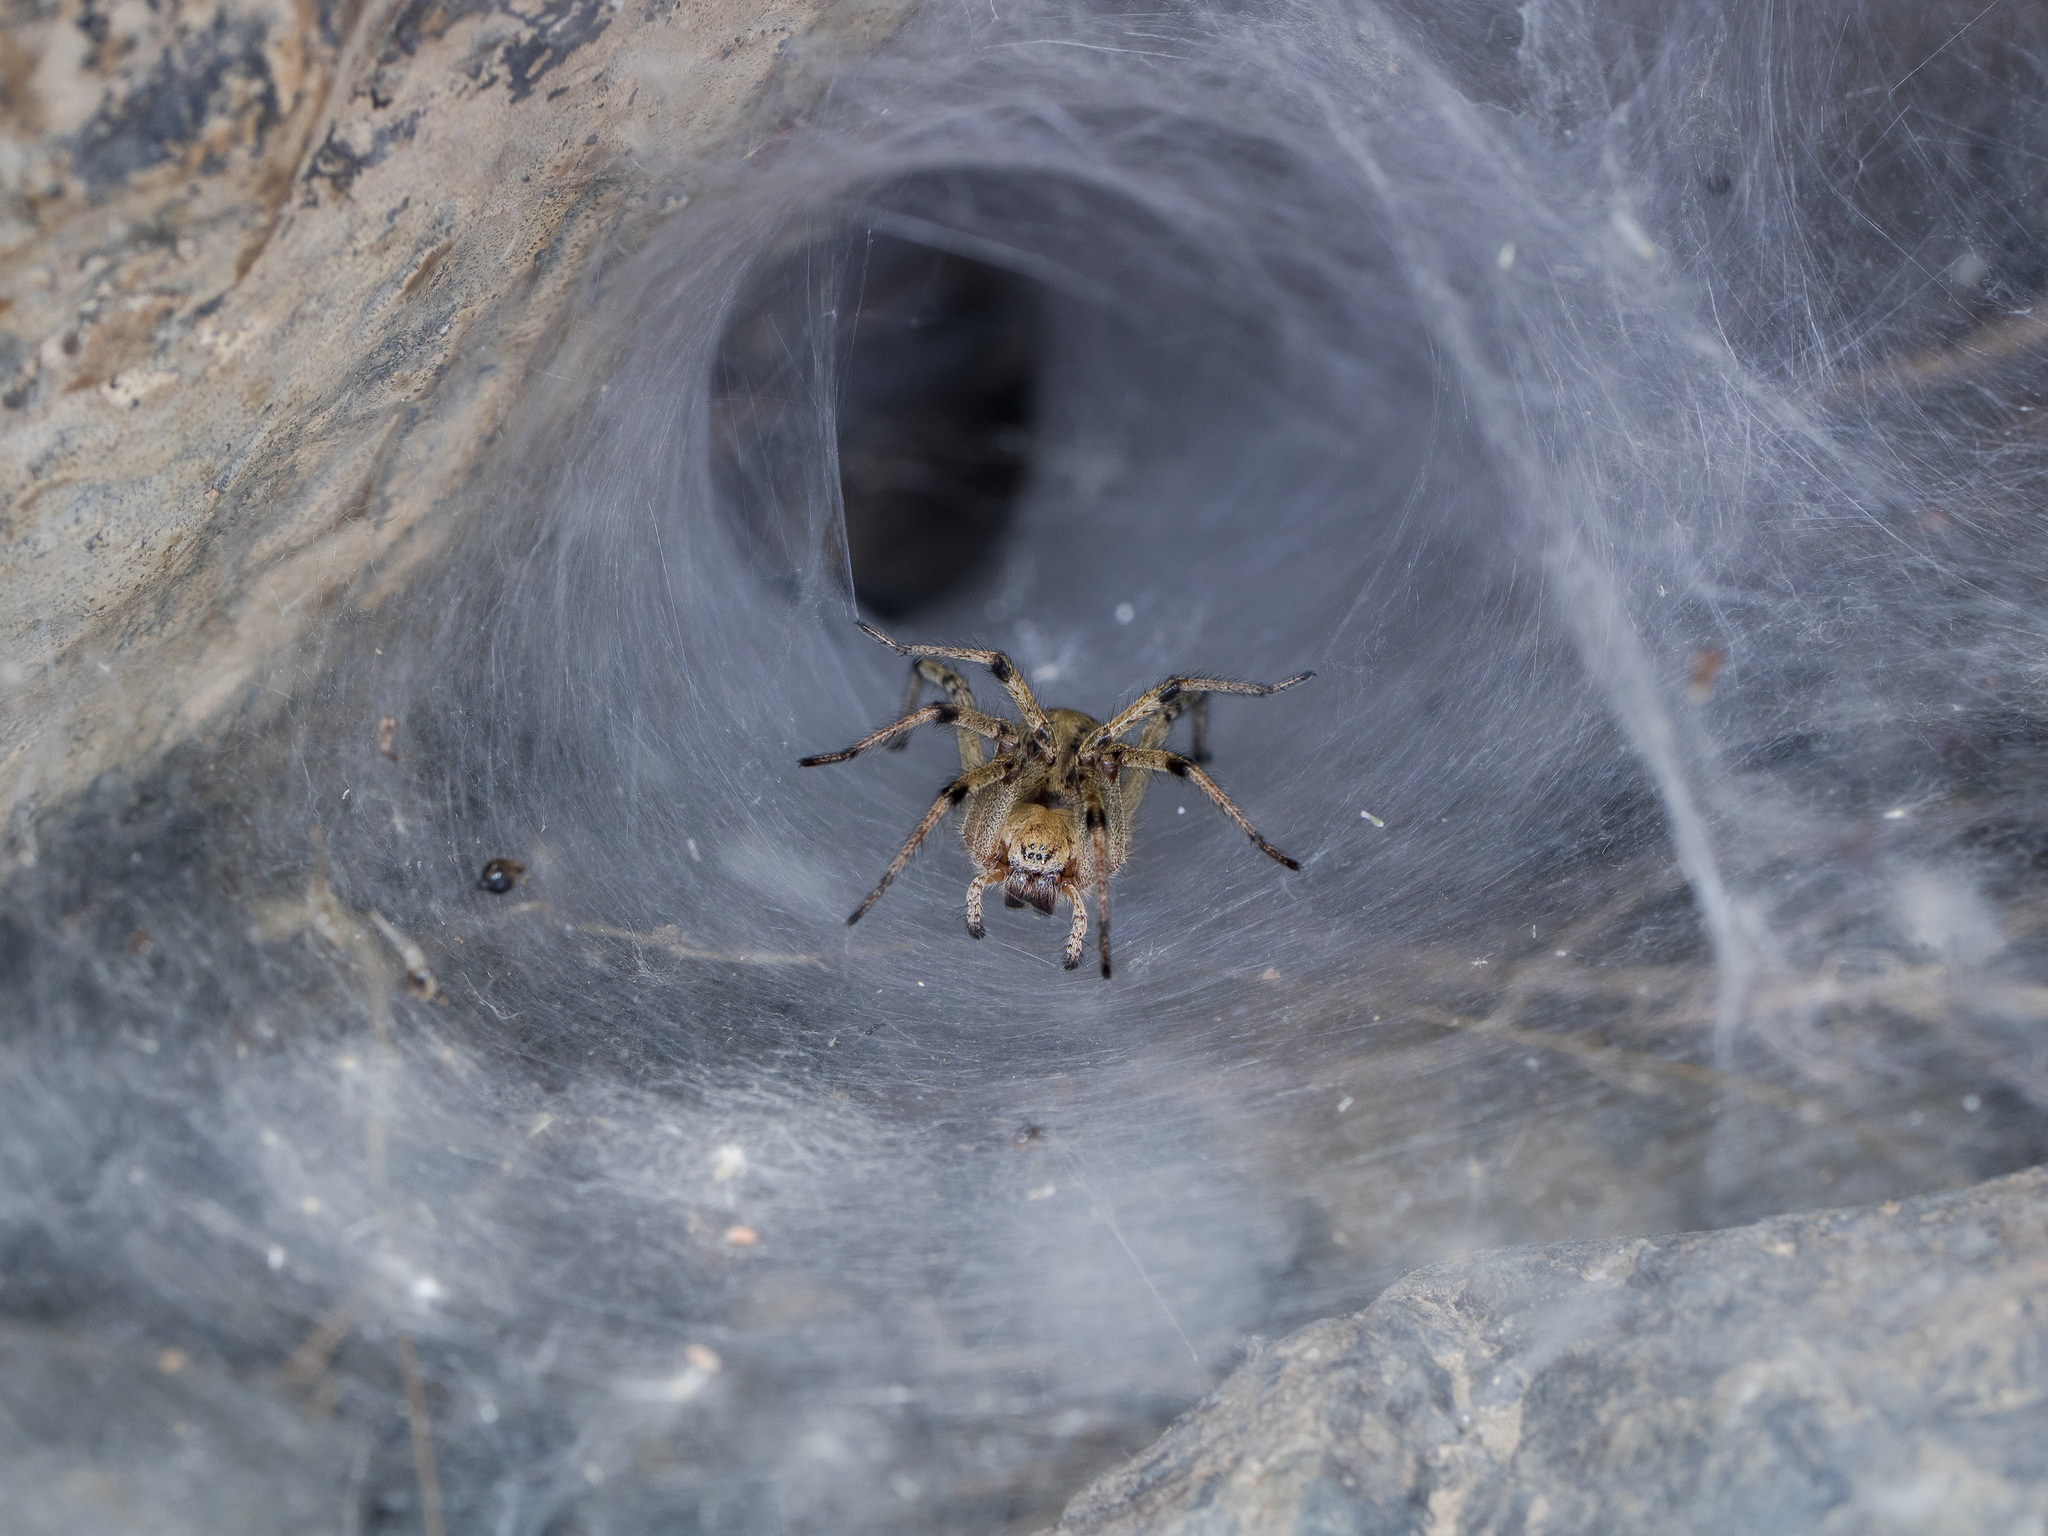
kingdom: Animalia
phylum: Arthropoda
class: Arachnida
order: Araneae
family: Agelenidae
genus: Agelena
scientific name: Agelena orientalis
